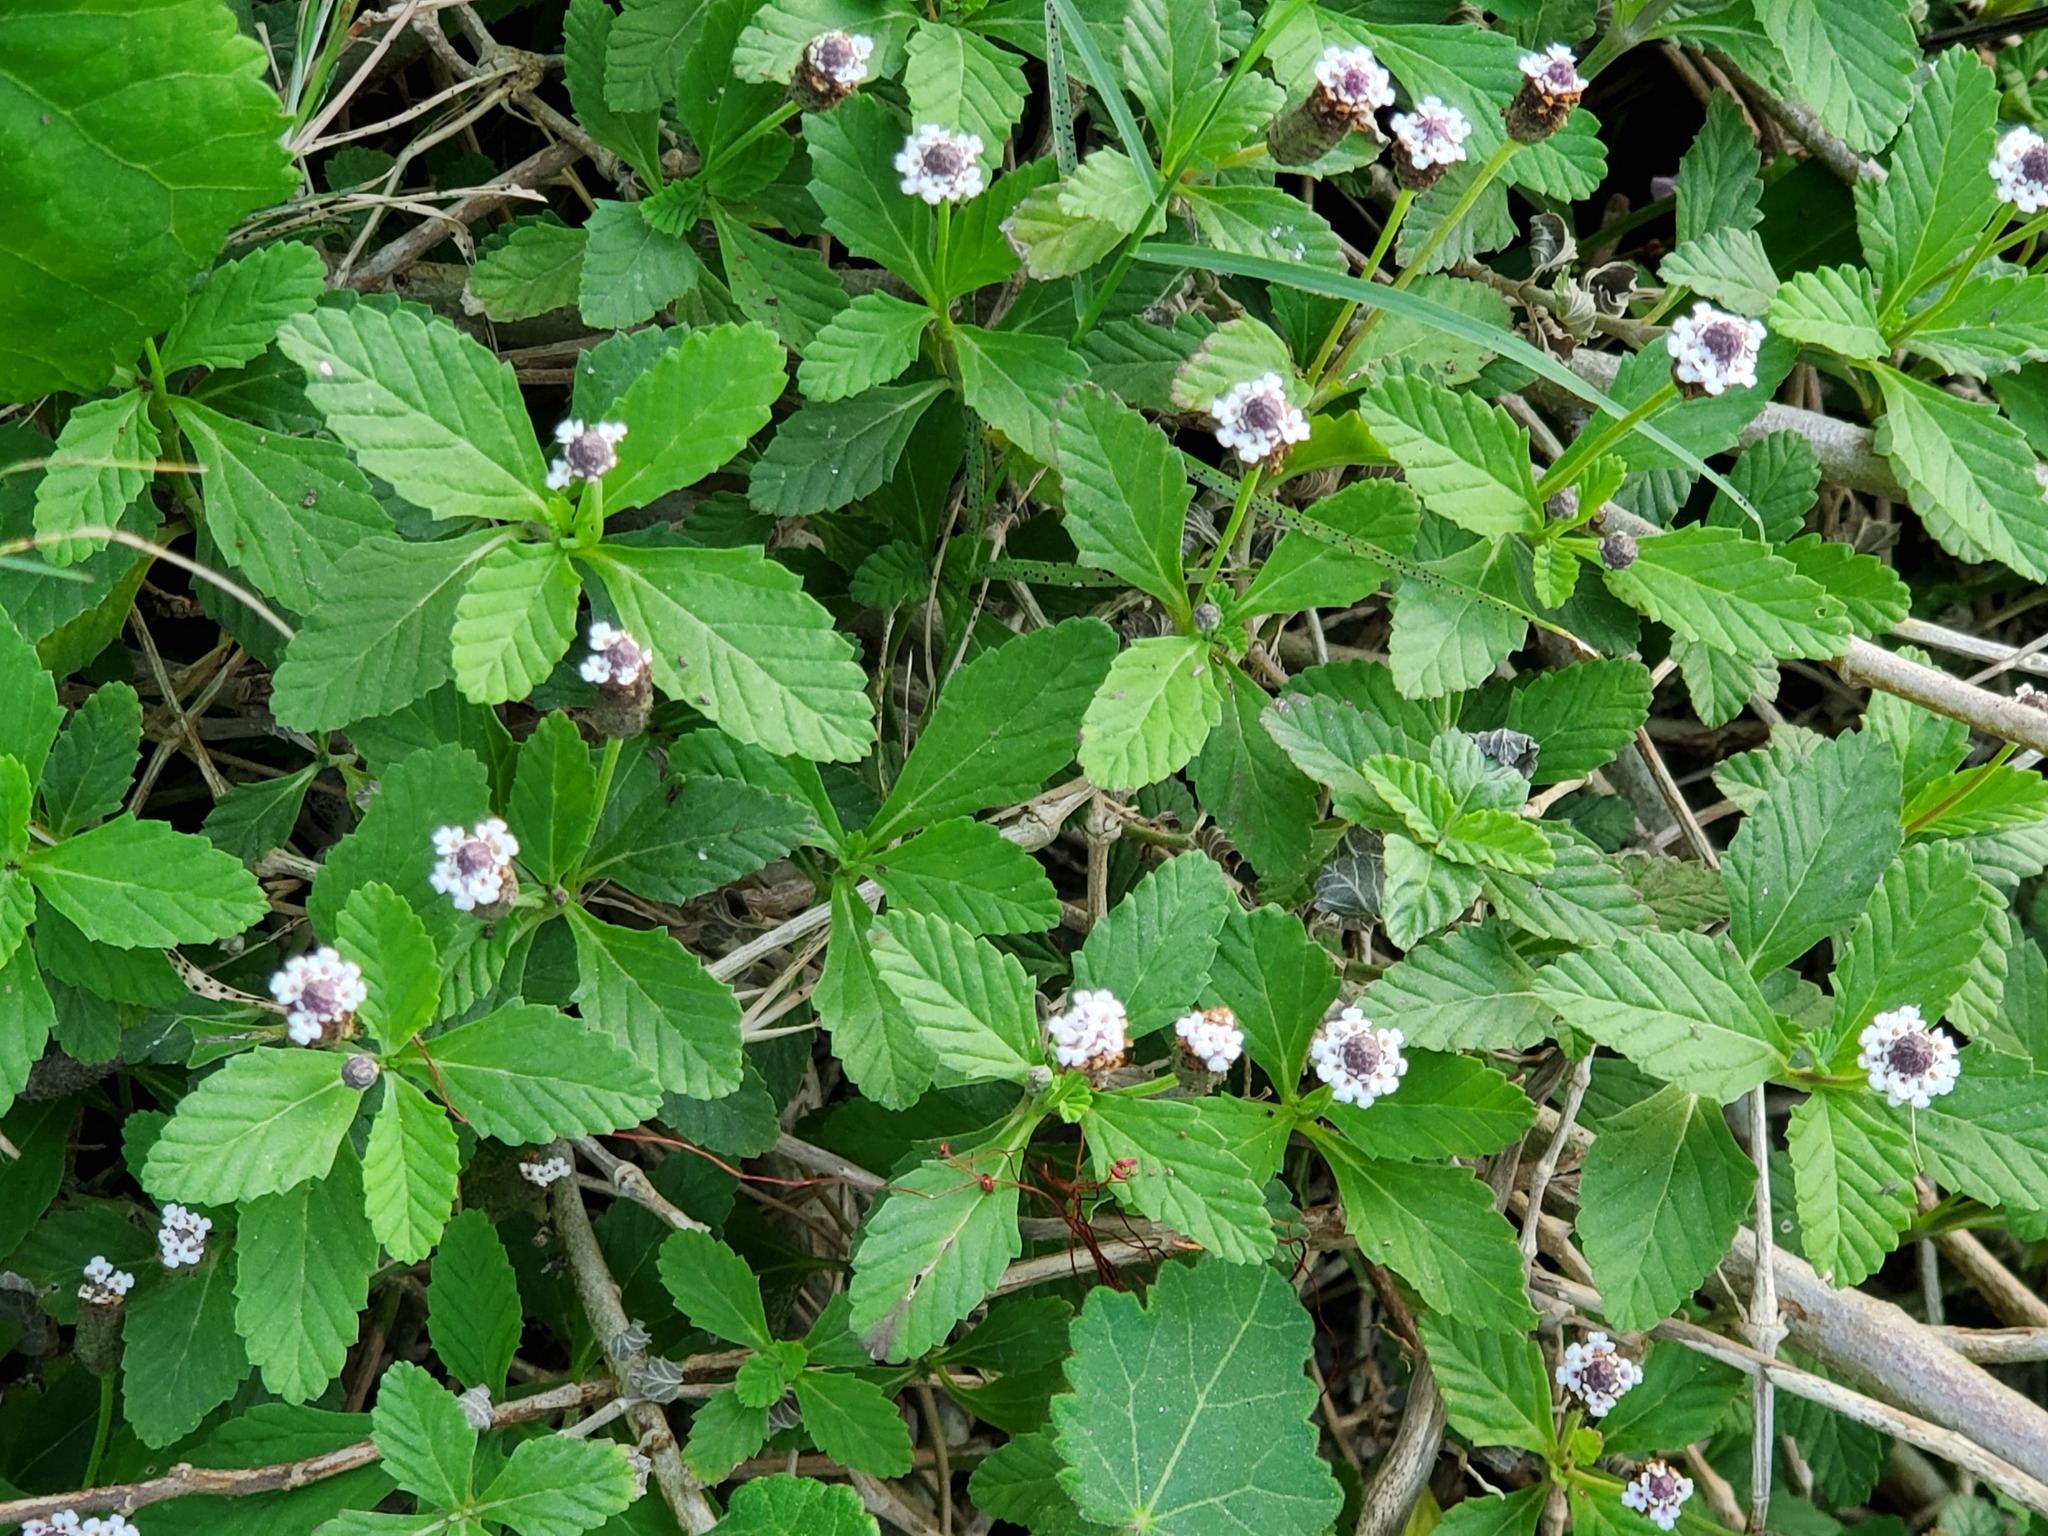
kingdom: Plantae
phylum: Tracheophyta
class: Magnoliopsida
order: Lamiales
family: Verbenaceae
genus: Phyla
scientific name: Phyla nodiflora
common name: Frogfruit
